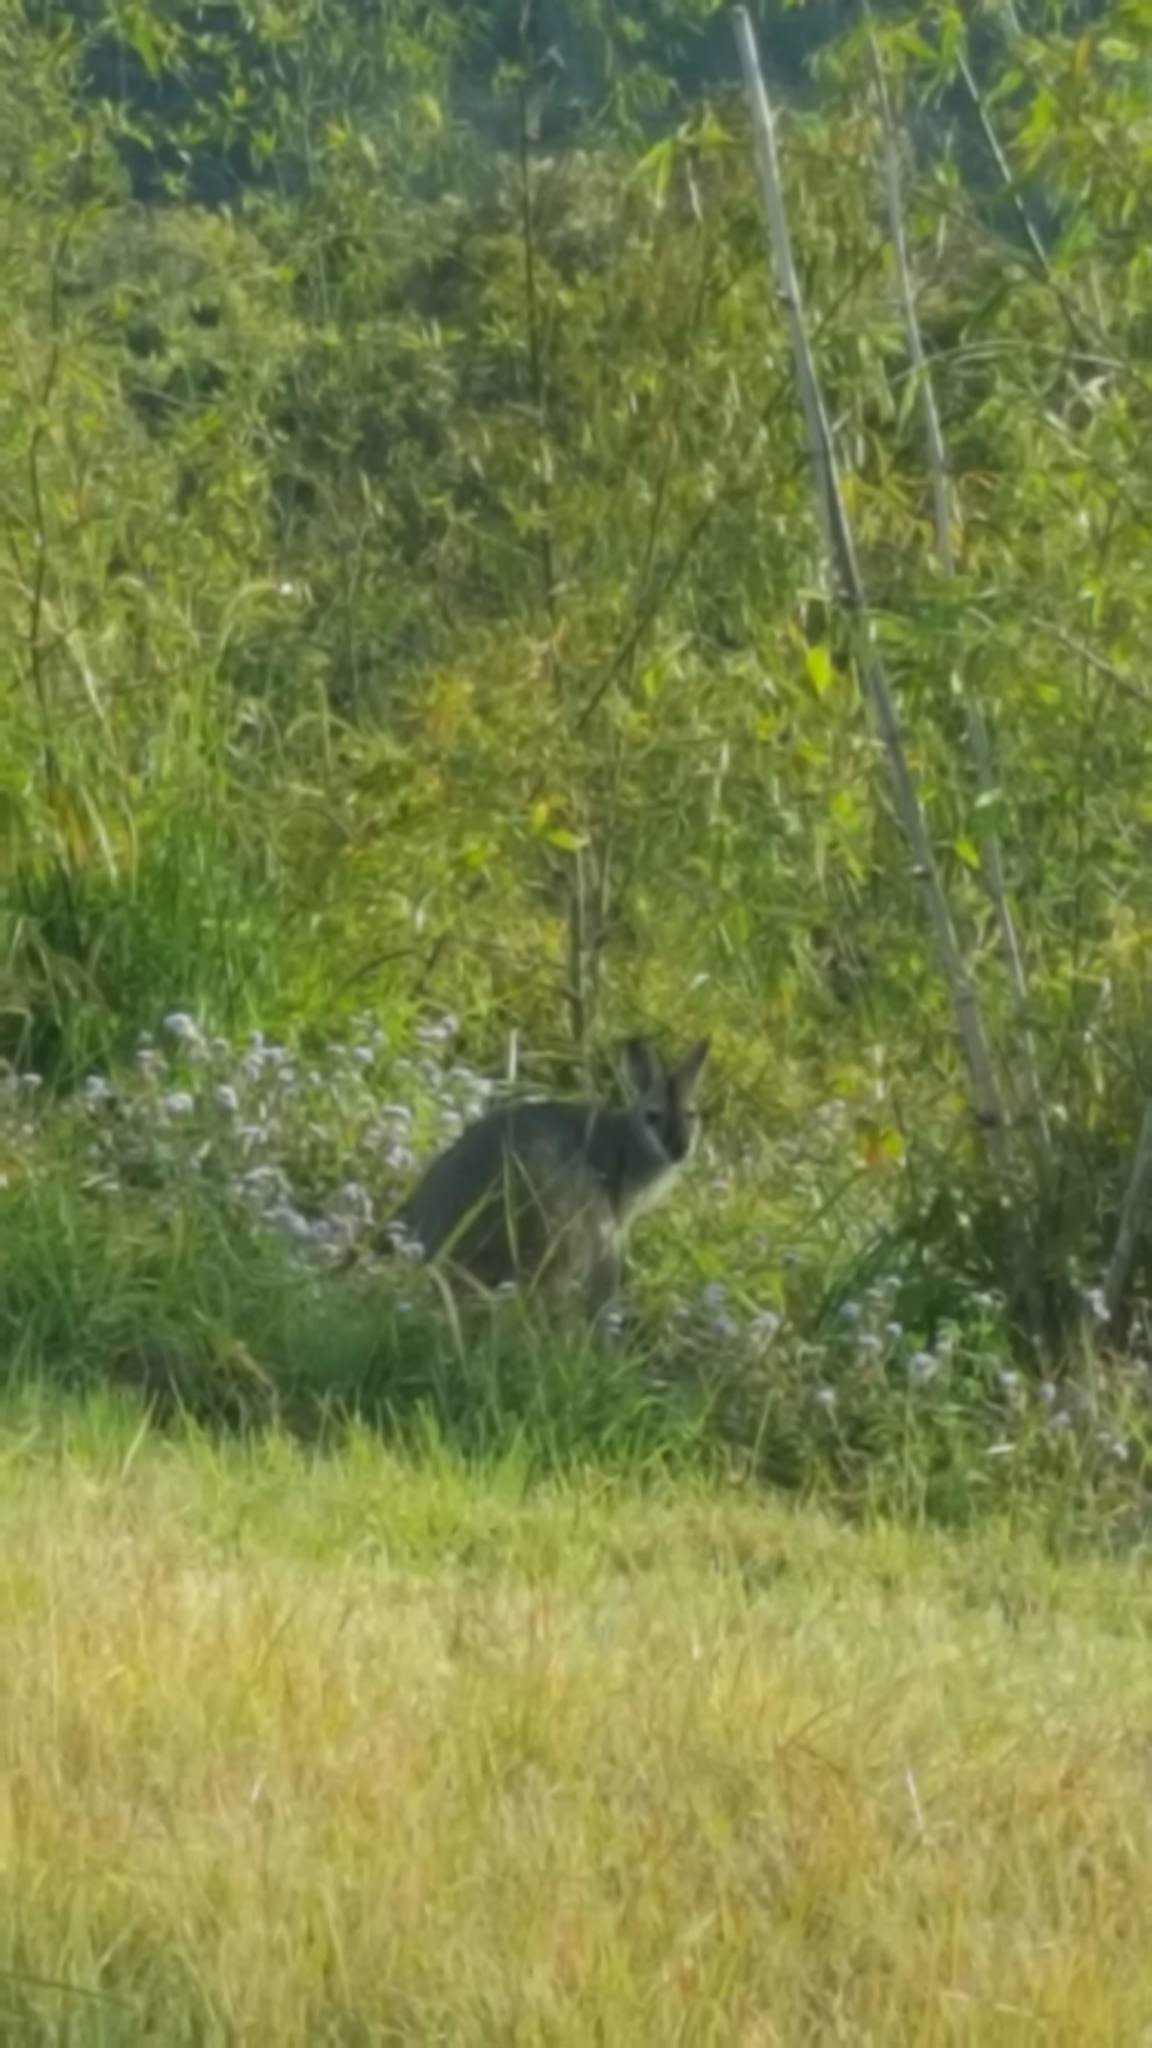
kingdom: Animalia
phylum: Chordata
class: Mammalia
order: Diprotodontia
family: Macropodidae
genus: Wallabia
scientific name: Wallabia bicolor
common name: Swamp wallaby
